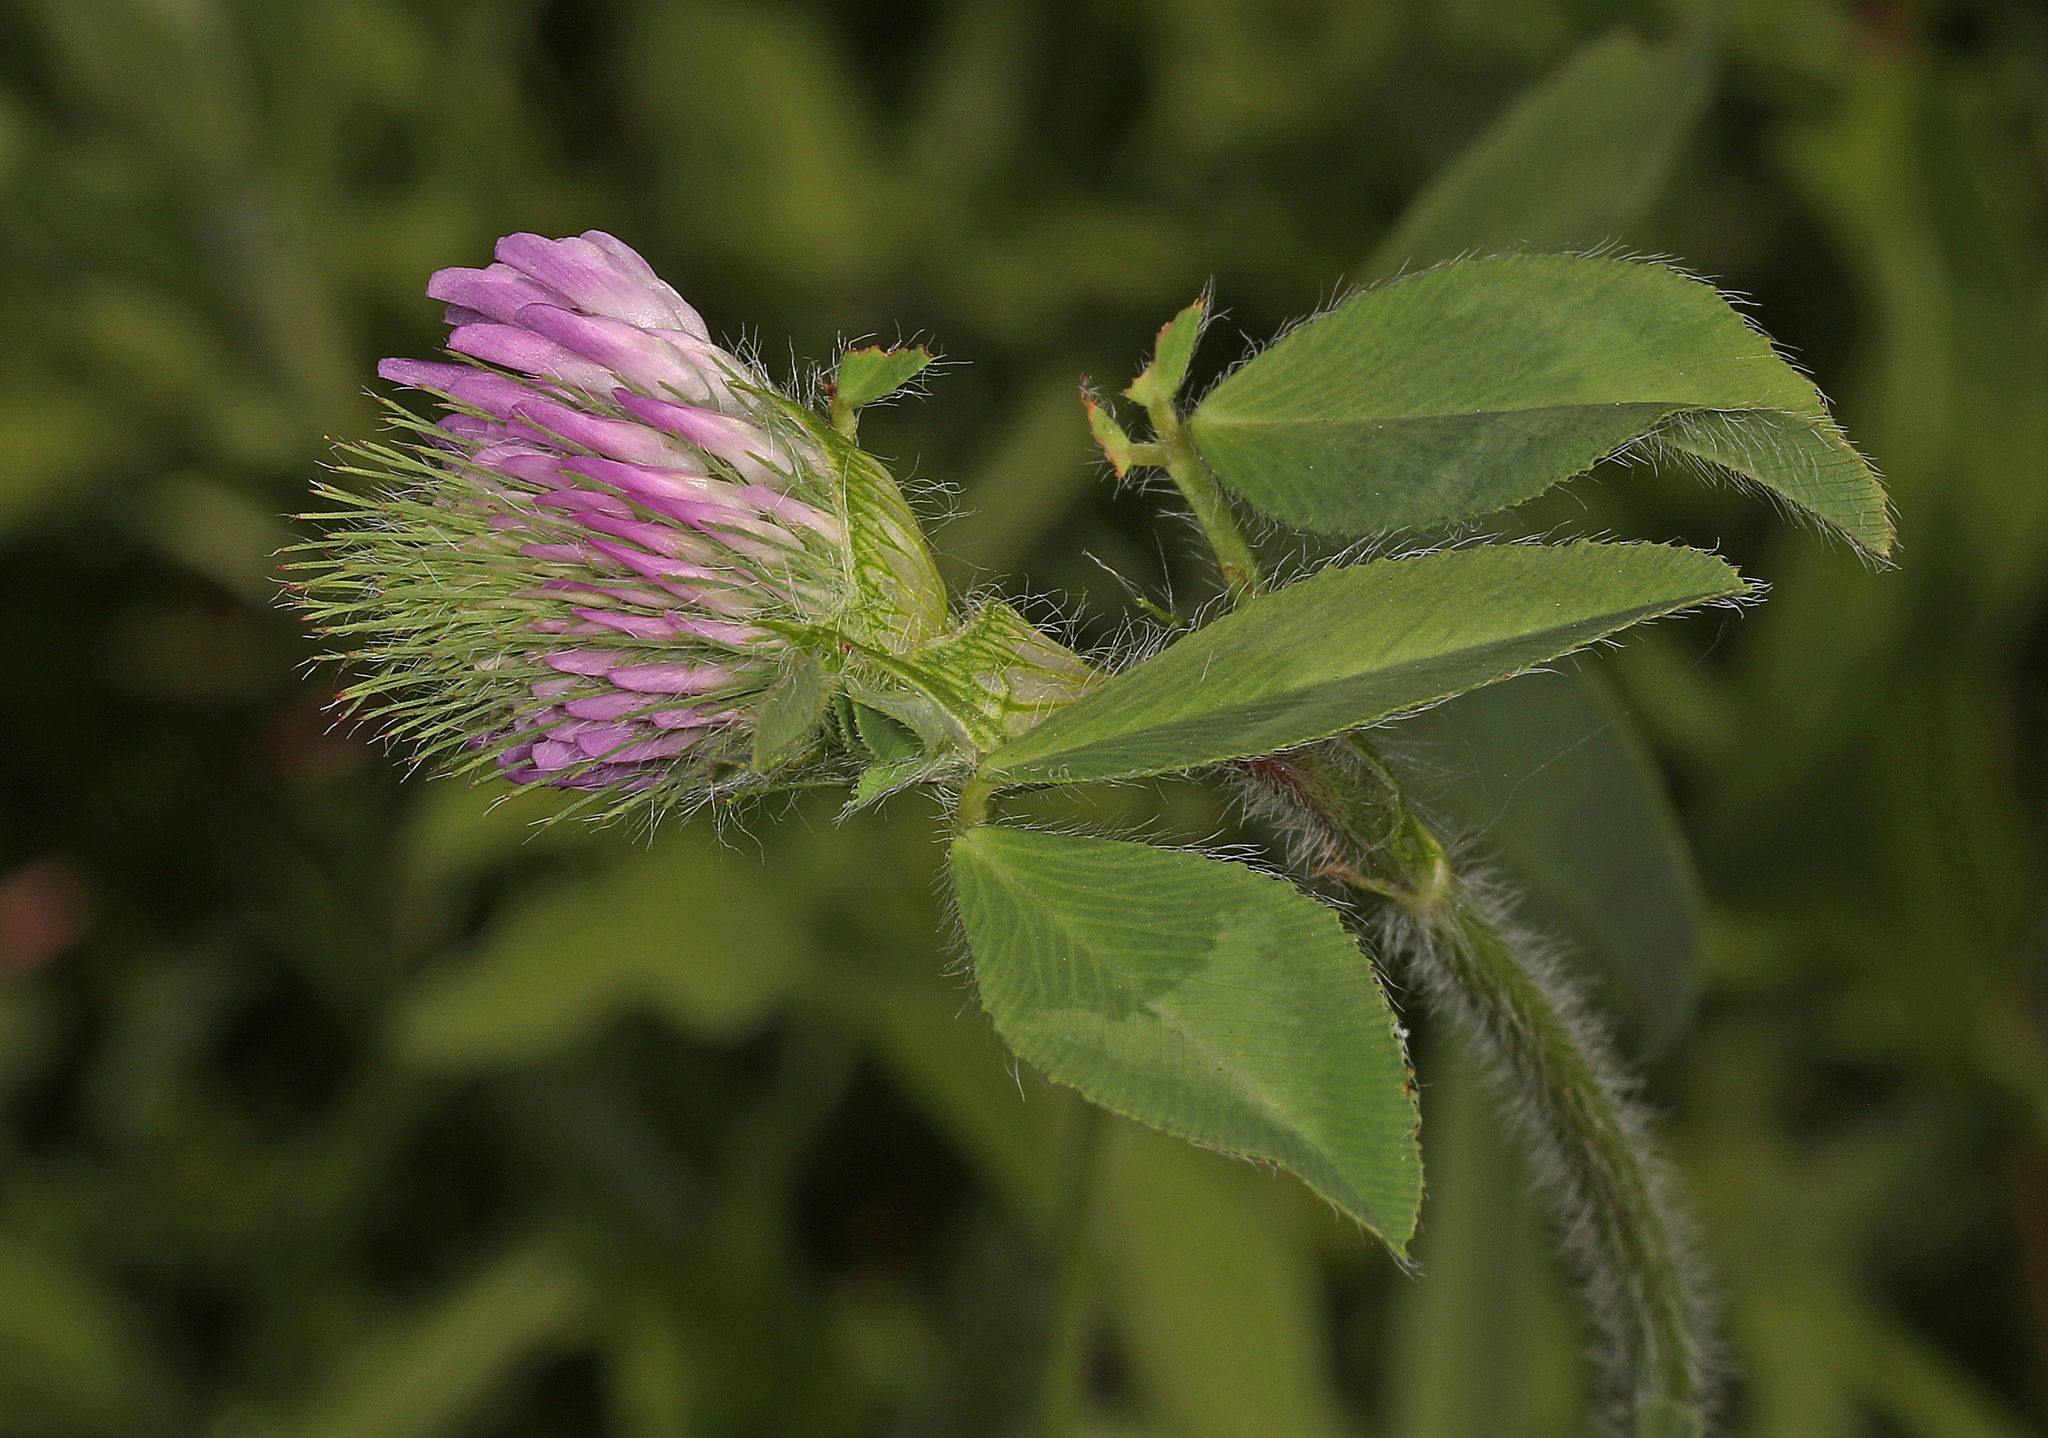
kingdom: Plantae
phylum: Tracheophyta
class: Magnoliopsida
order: Fabales
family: Fabaceae
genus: Trifolium
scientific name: Trifolium pratense
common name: Red clover
